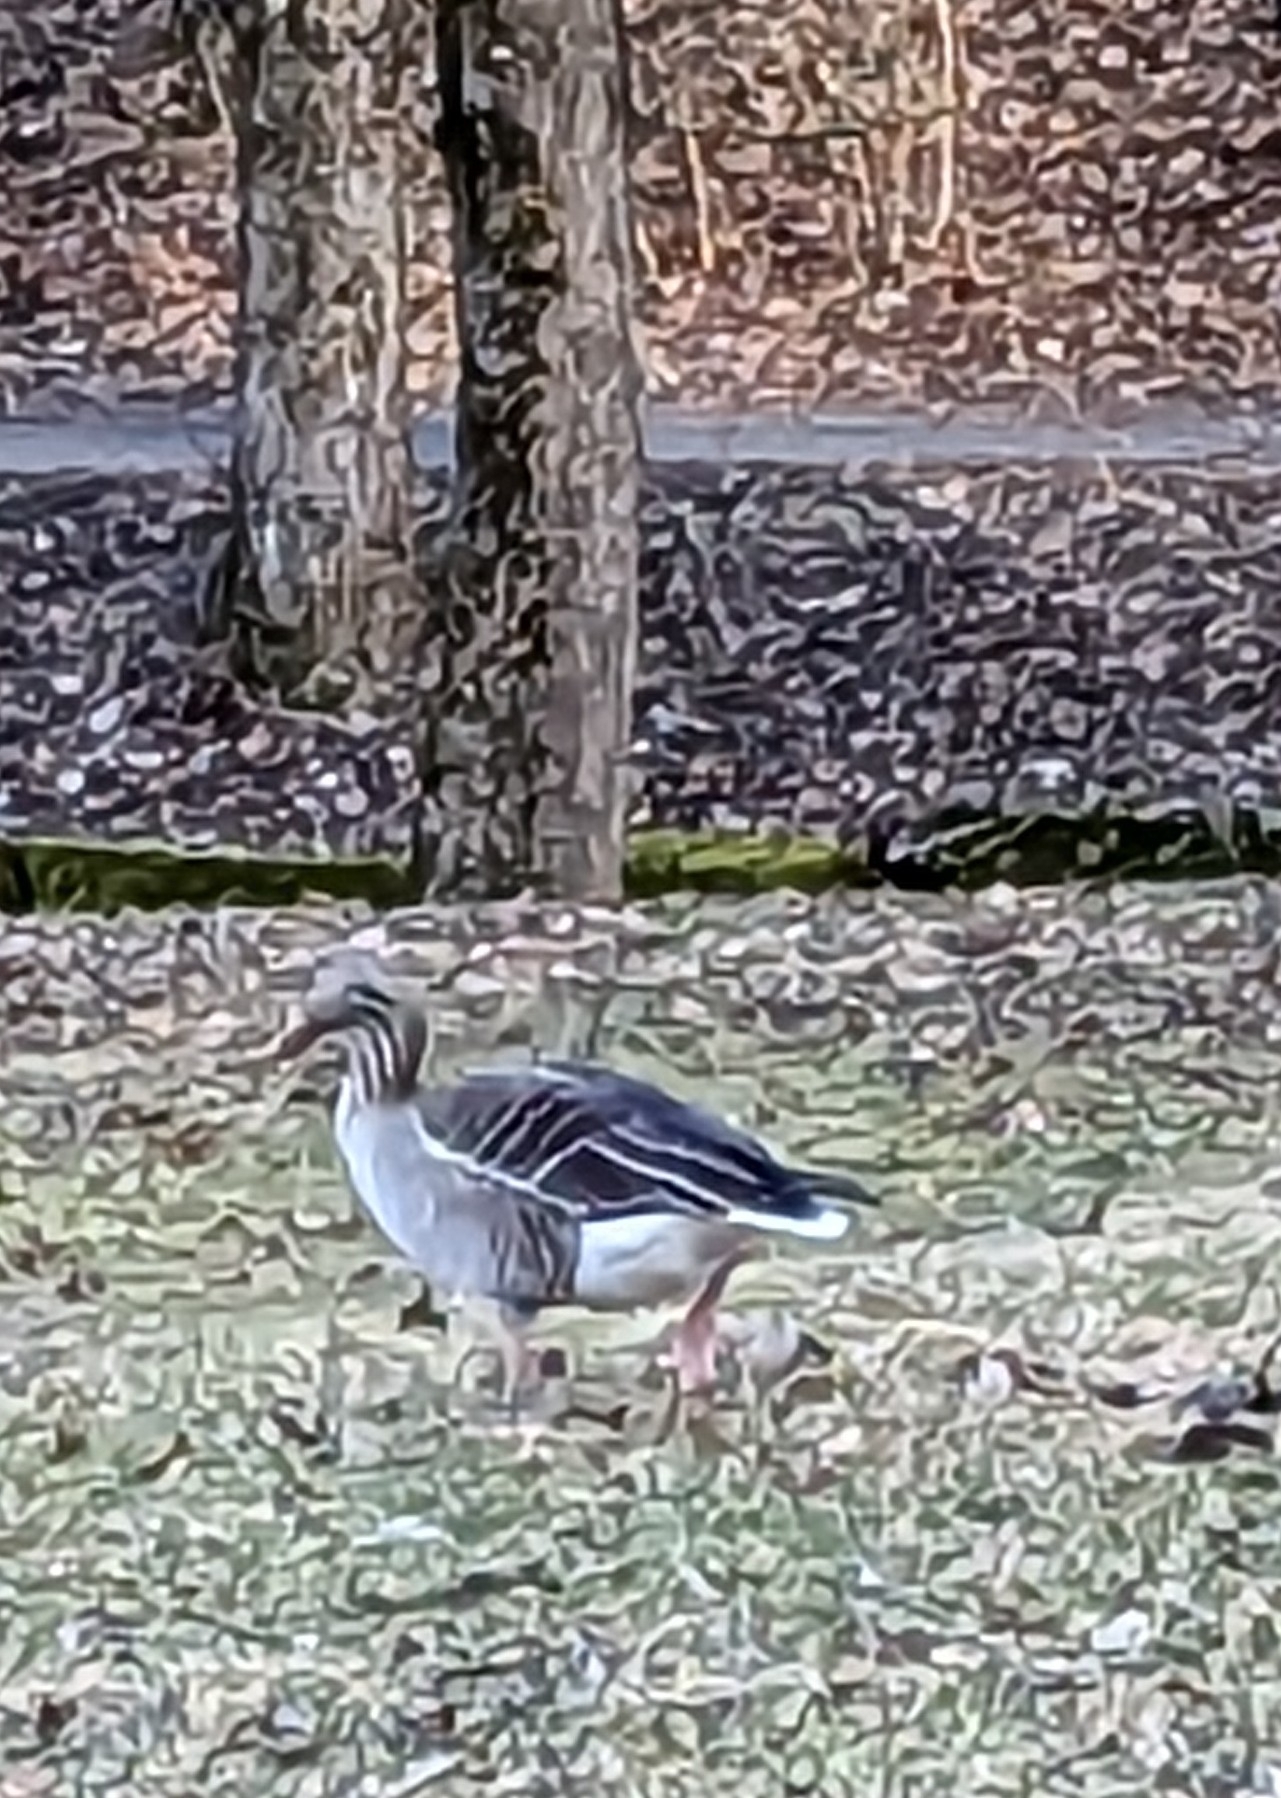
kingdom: Animalia
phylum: Chordata
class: Aves
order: Anseriformes
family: Anatidae
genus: Anser
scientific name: Anser anser
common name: Greylag goose
